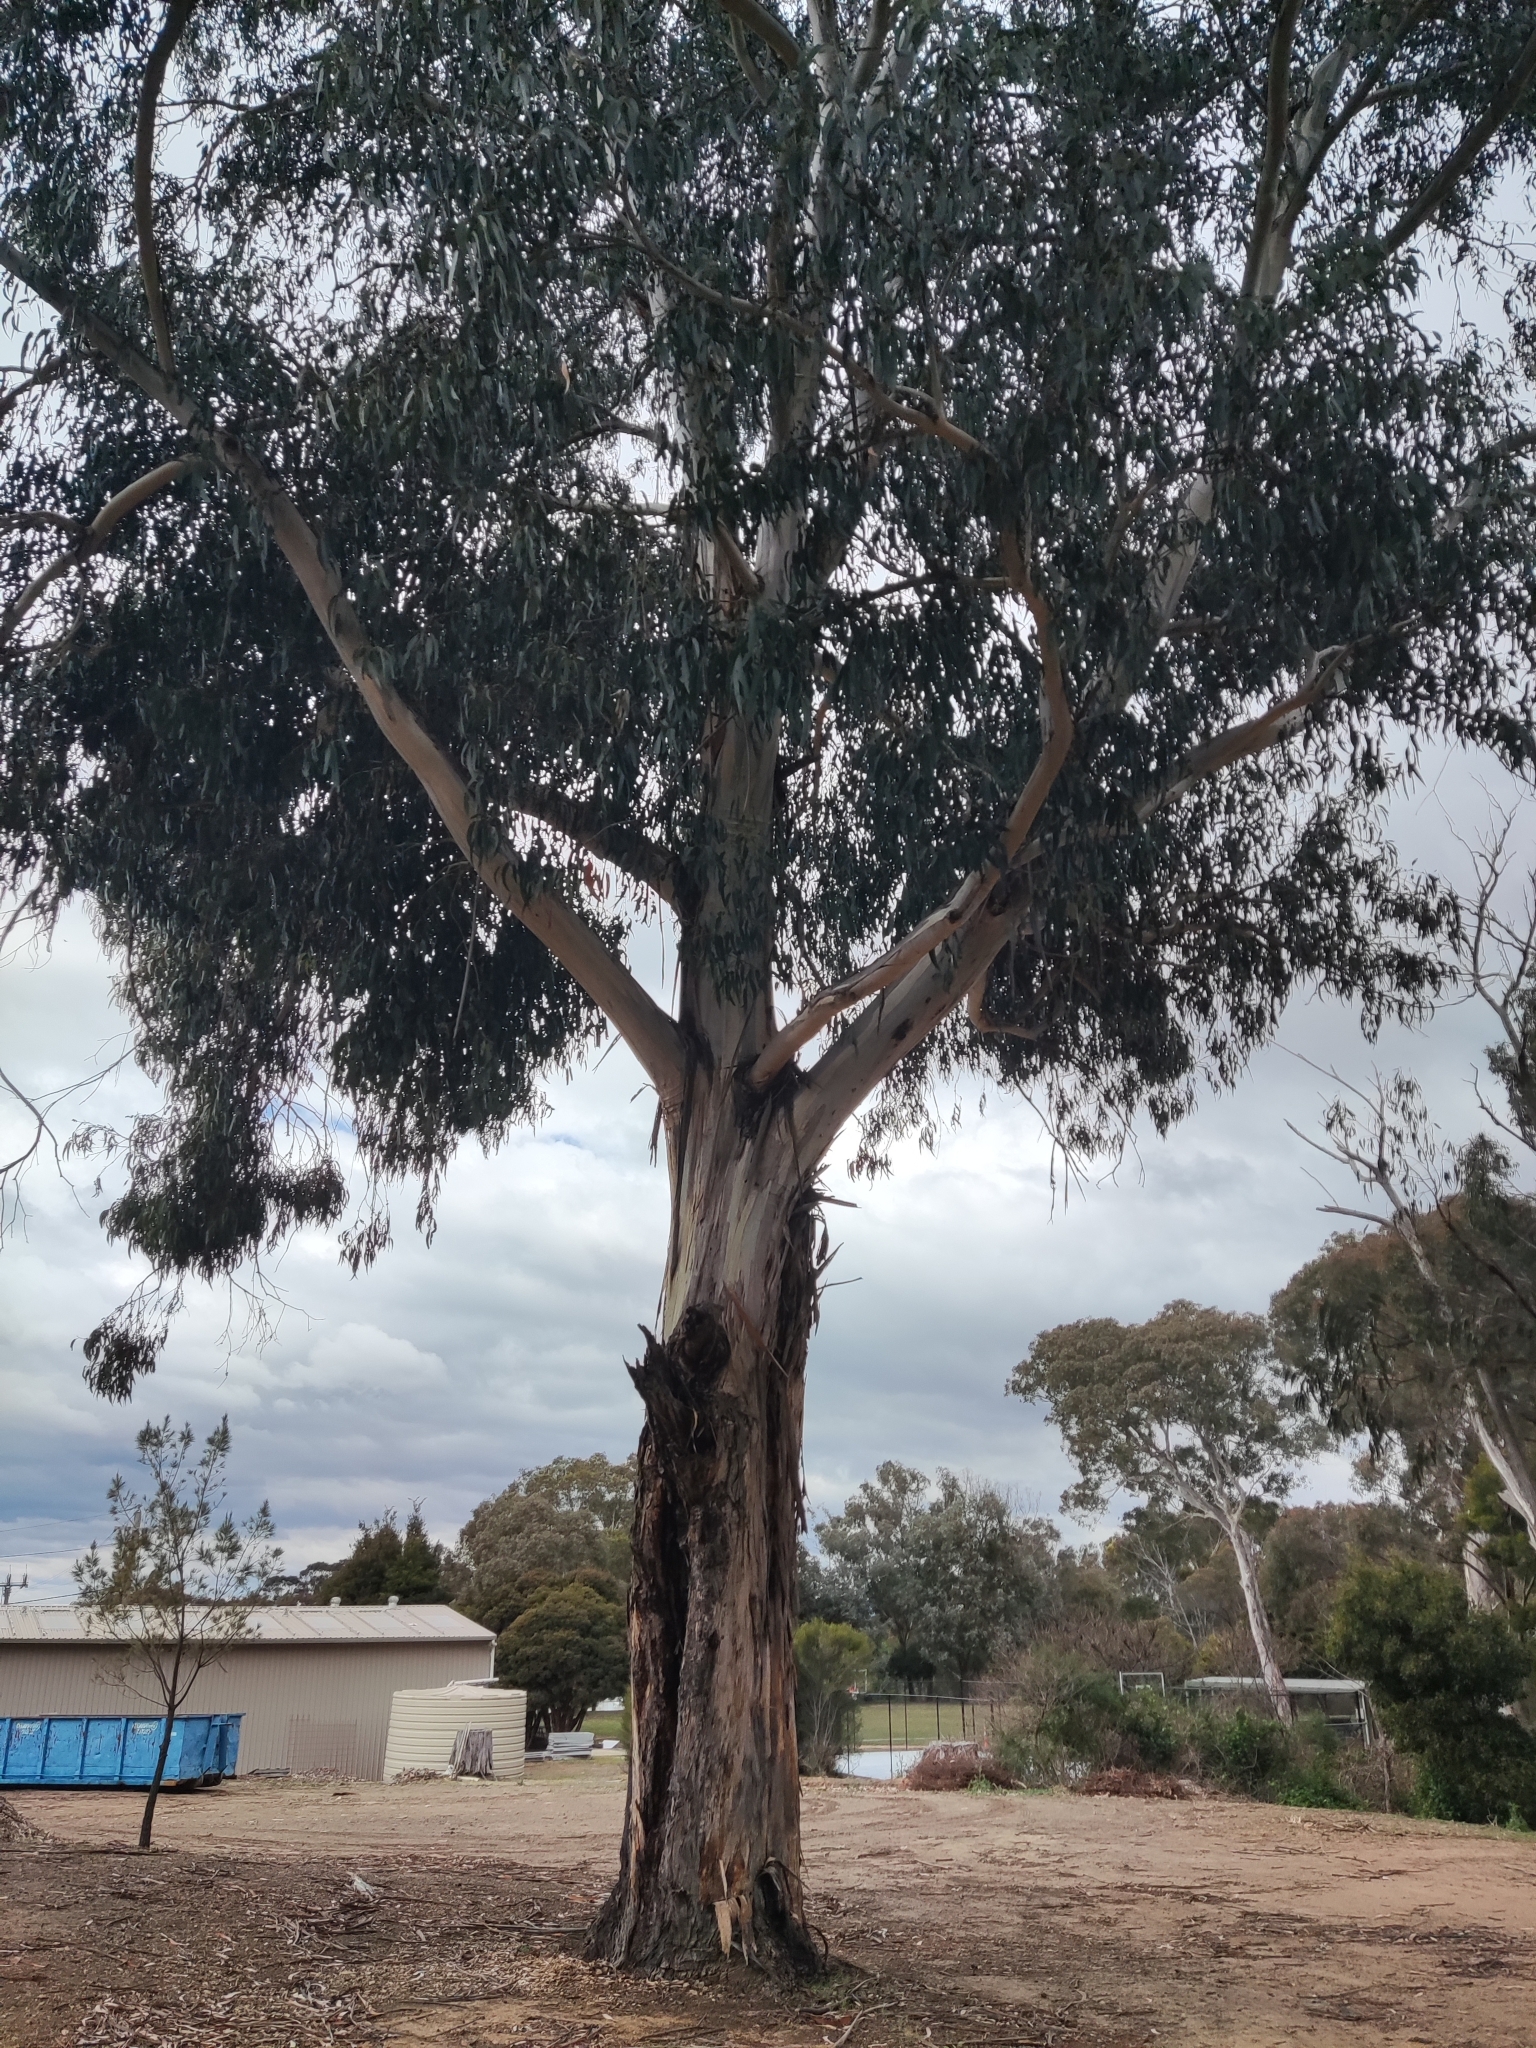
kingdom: Plantae
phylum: Tracheophyta
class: Magnoliopsida
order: Myrtales
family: Myrtaceae
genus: Eucalyptus
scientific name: Eucalyptus globulus
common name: Southern blue-gum
